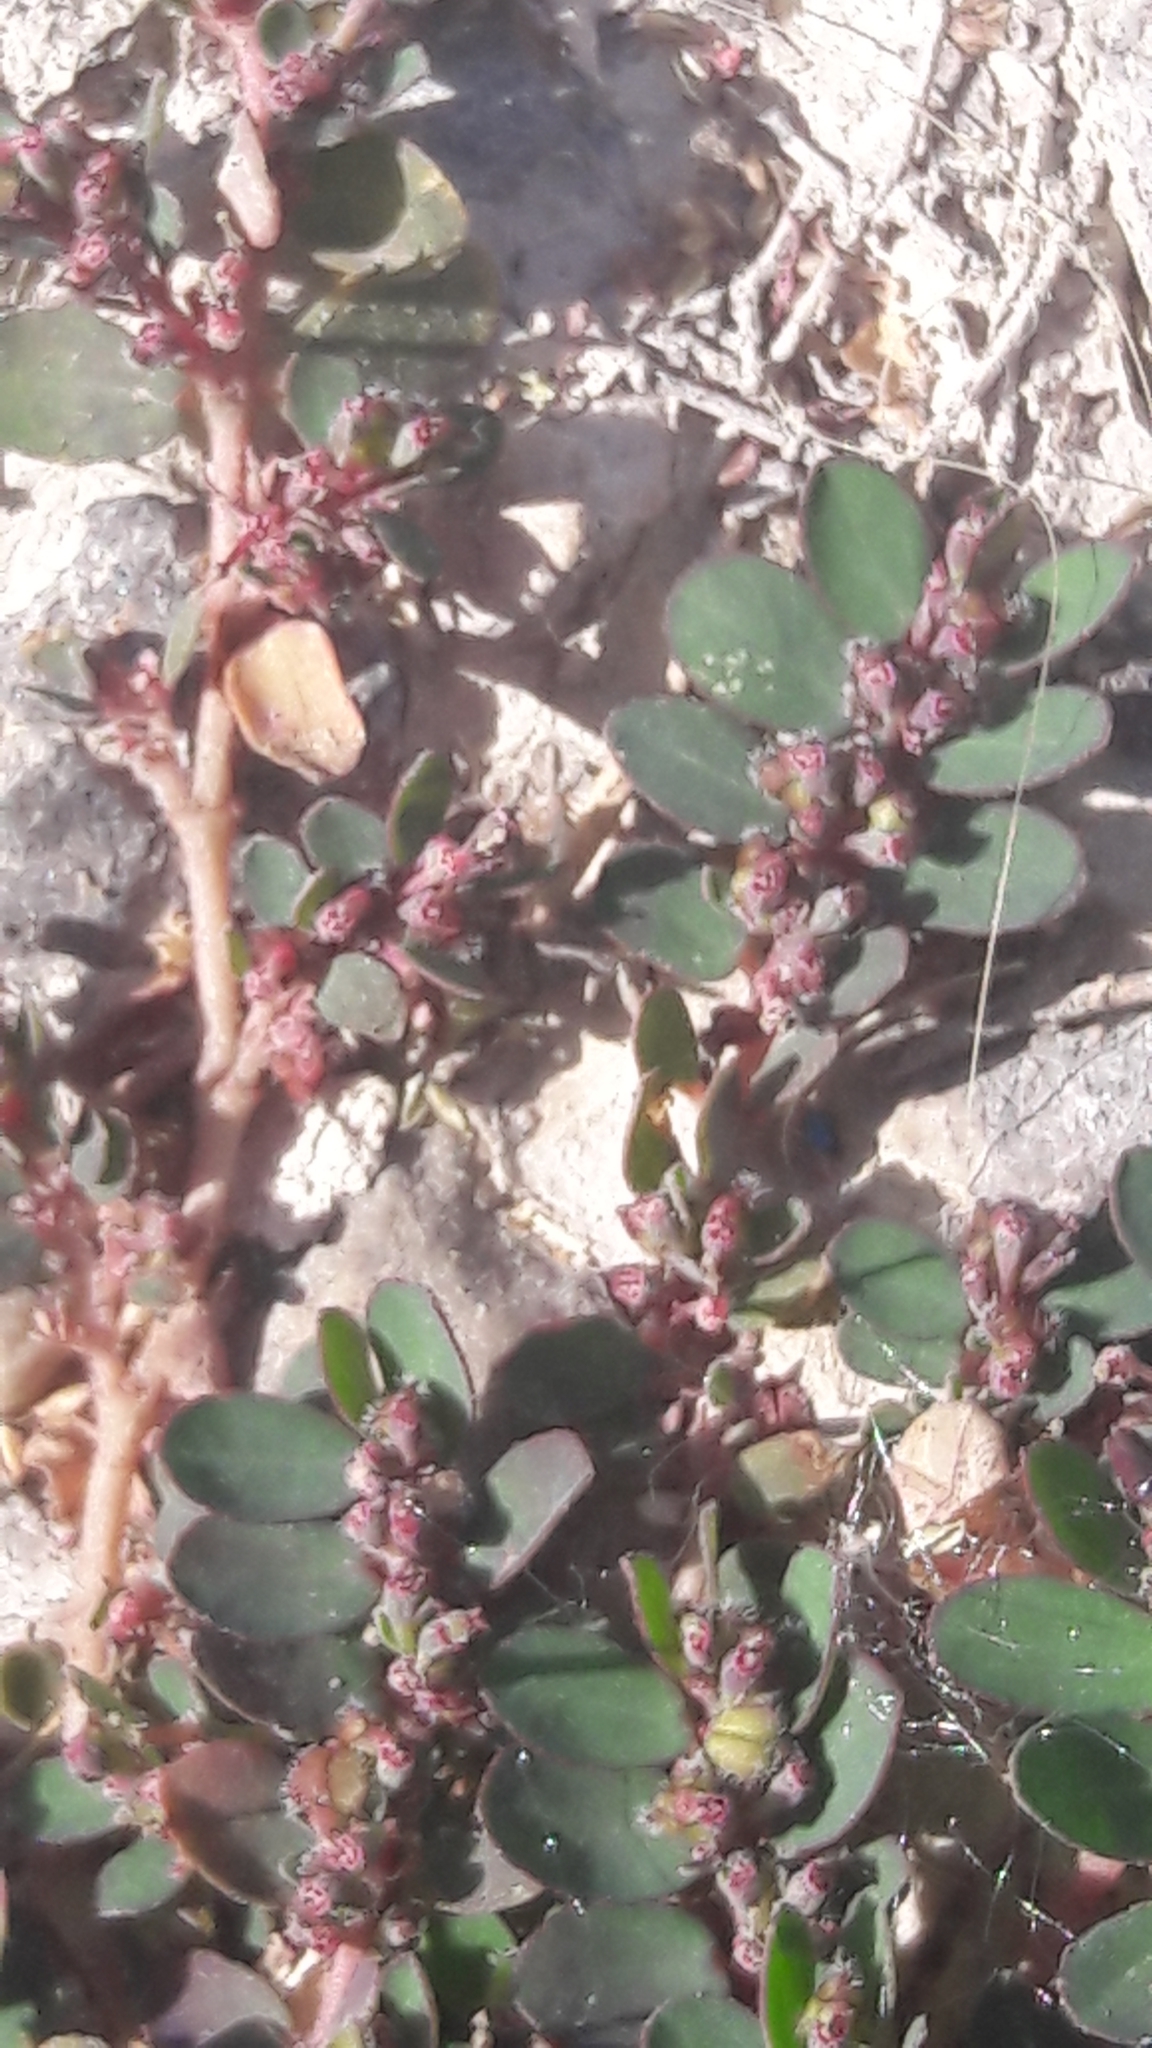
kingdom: Plantae
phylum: Tracheophyta
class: Magnoliopsida
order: Malpighiales
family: Euphorbiaceae
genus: Euphorbia
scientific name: Euphorbia prostrata
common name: Prostrate sandmat
